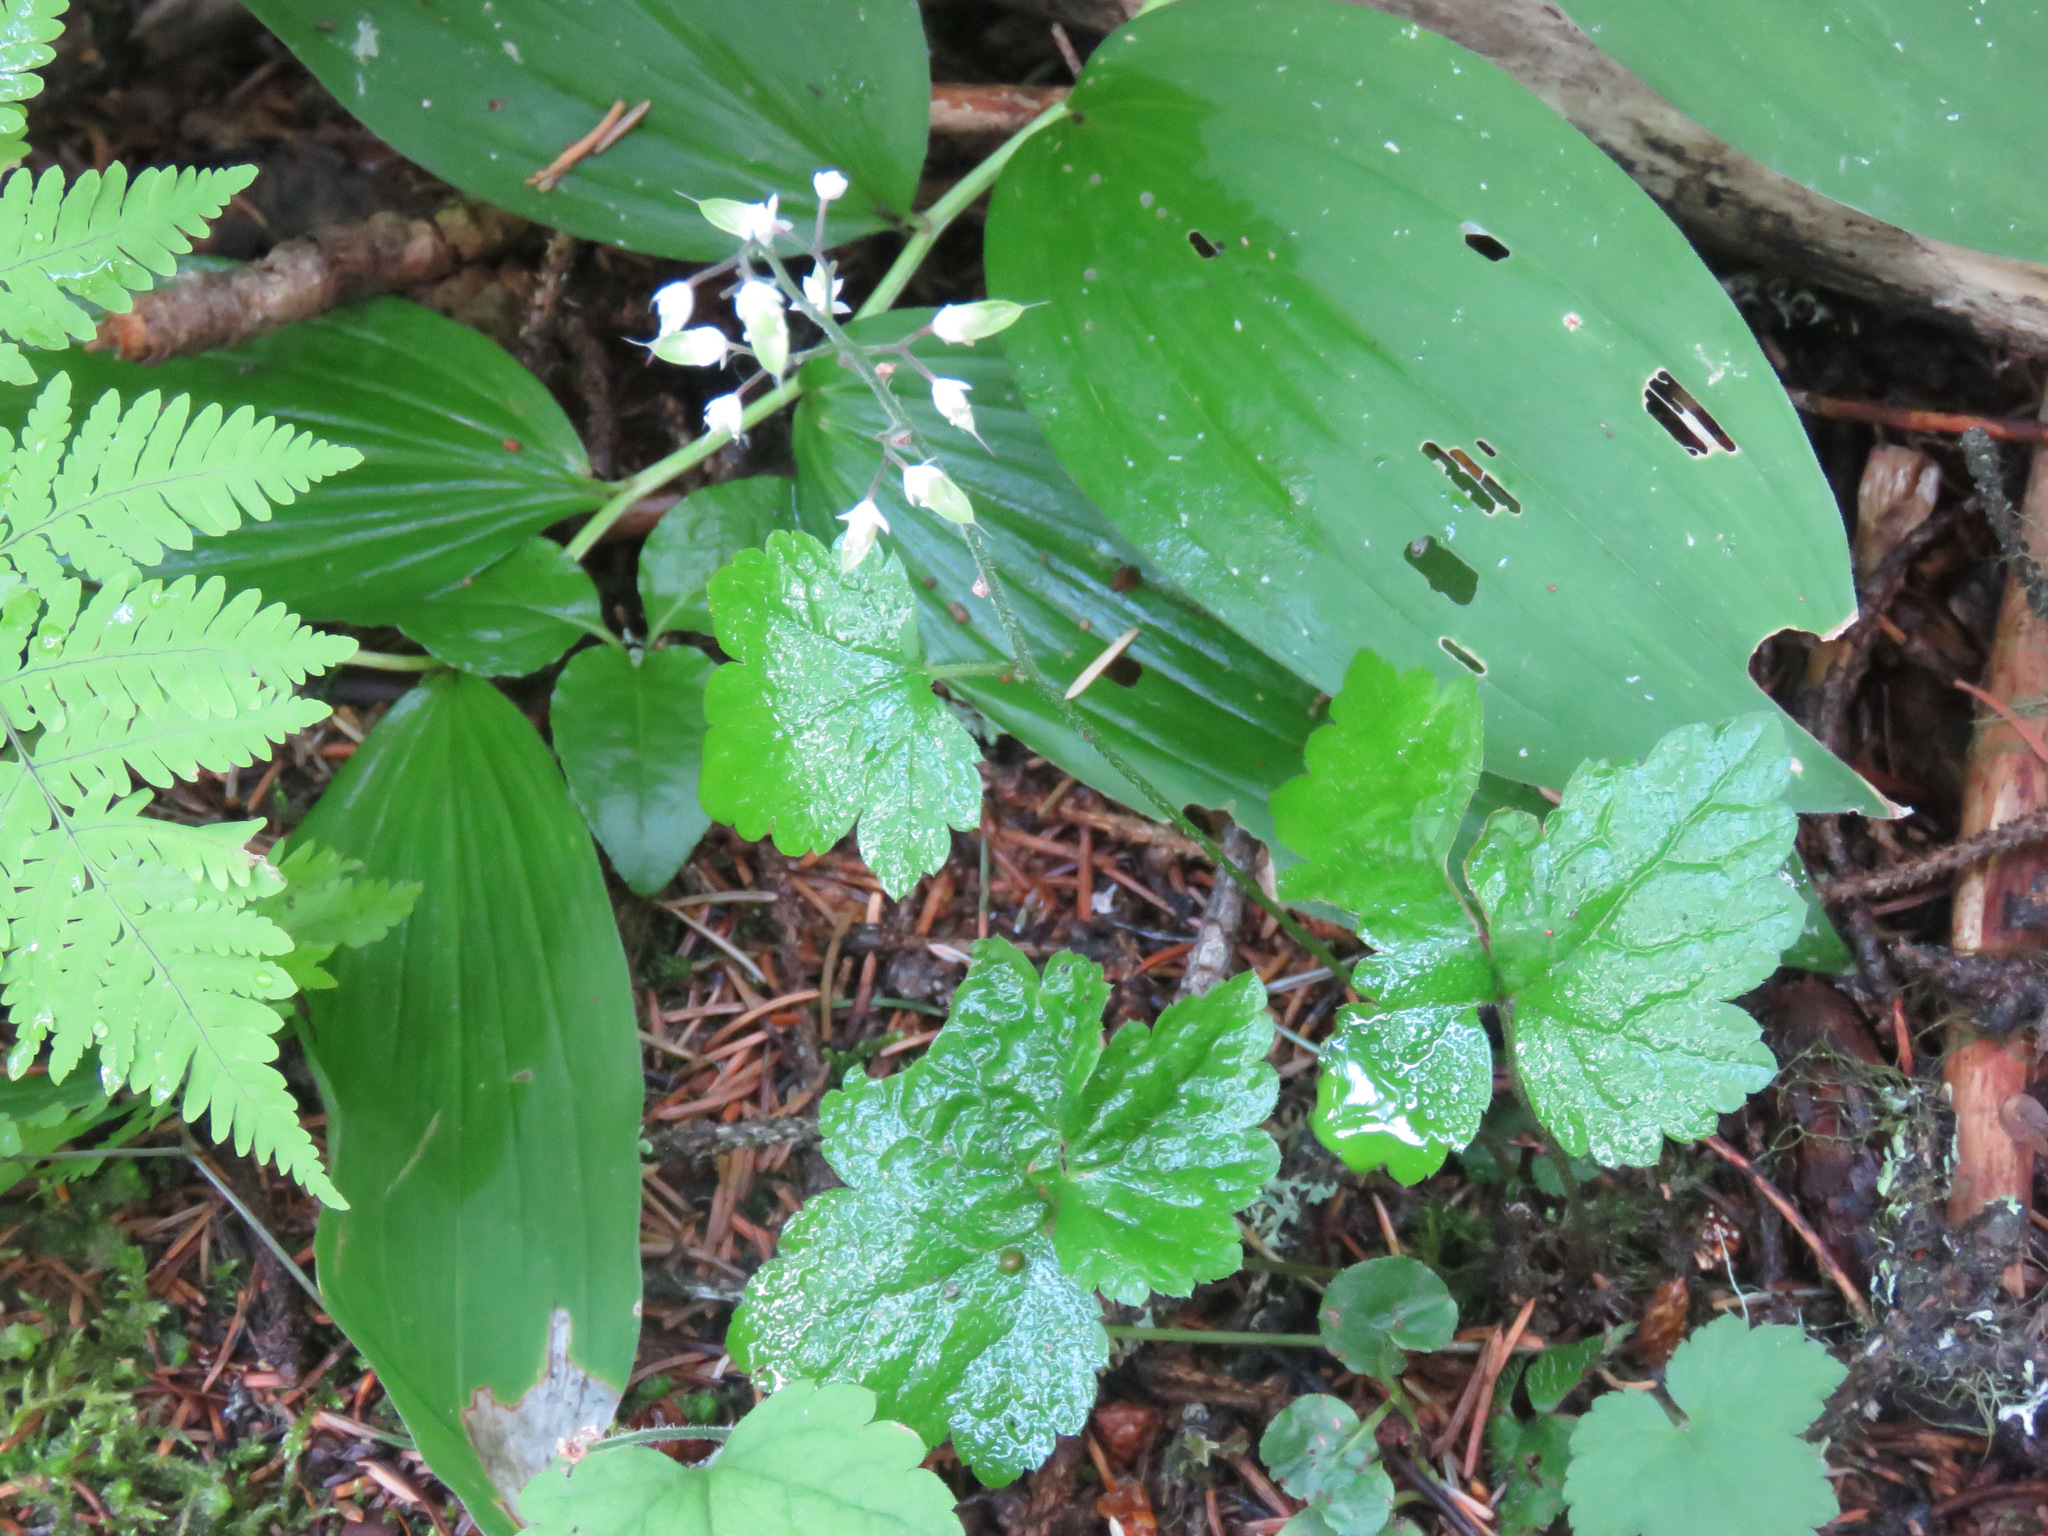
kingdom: Plantae
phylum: Tracheophyta
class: Magnoliopsida
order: Saxifragales
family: Saxifragaceae
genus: Tiarella
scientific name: Tiarella trifoliata
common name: Sugar-scoop
